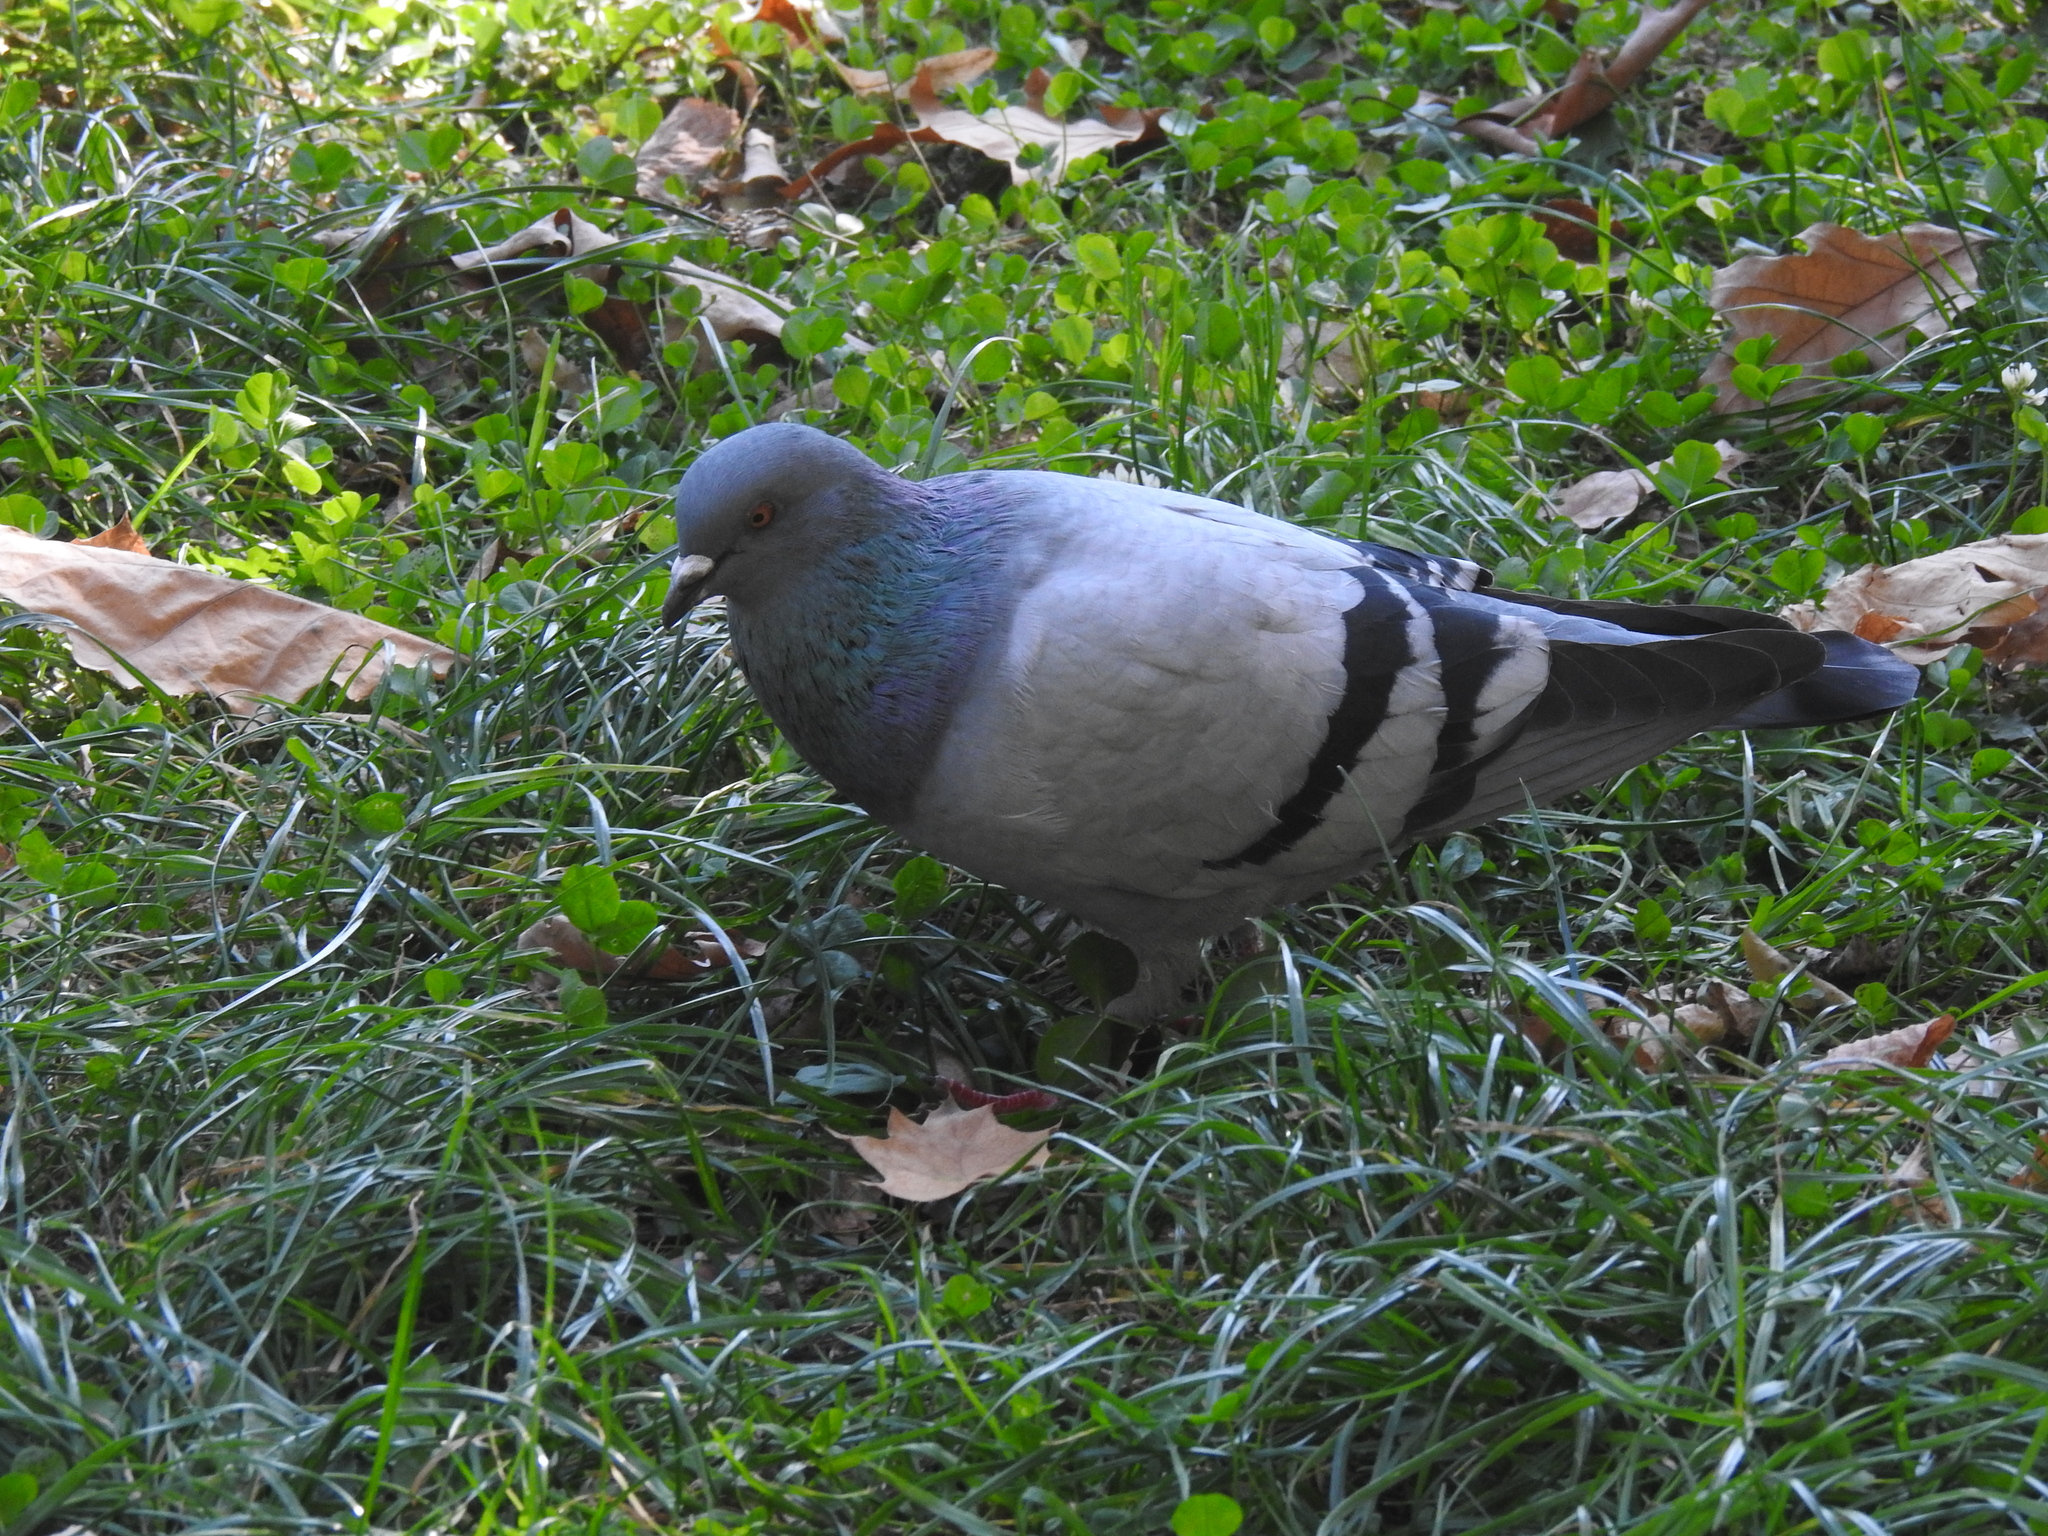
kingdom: Animalia
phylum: Chordata
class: Aves
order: Columbiformes
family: Columbidae
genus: Columba
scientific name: Columba livia
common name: Rock pigeon
